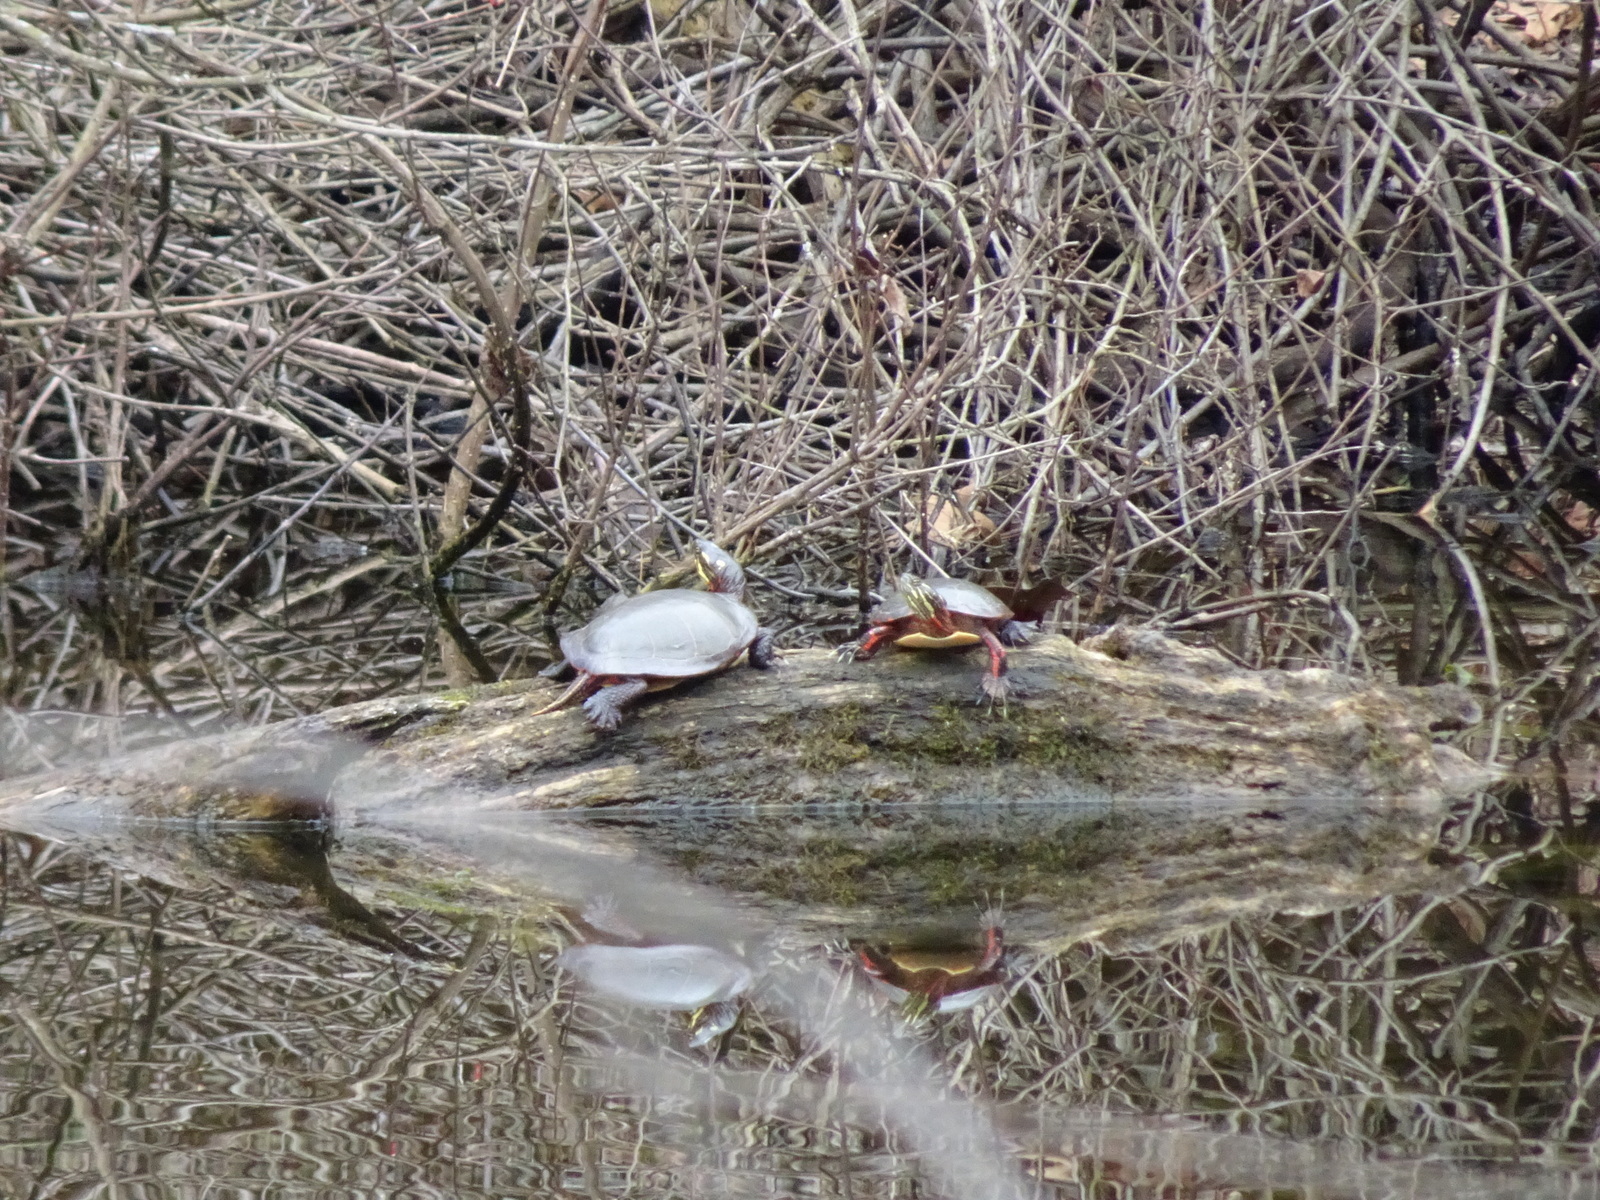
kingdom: Animalia
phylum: Chordata
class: Testudines
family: Emydidae
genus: Chrysemys
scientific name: Chrysemys picta
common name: Painted turtle
